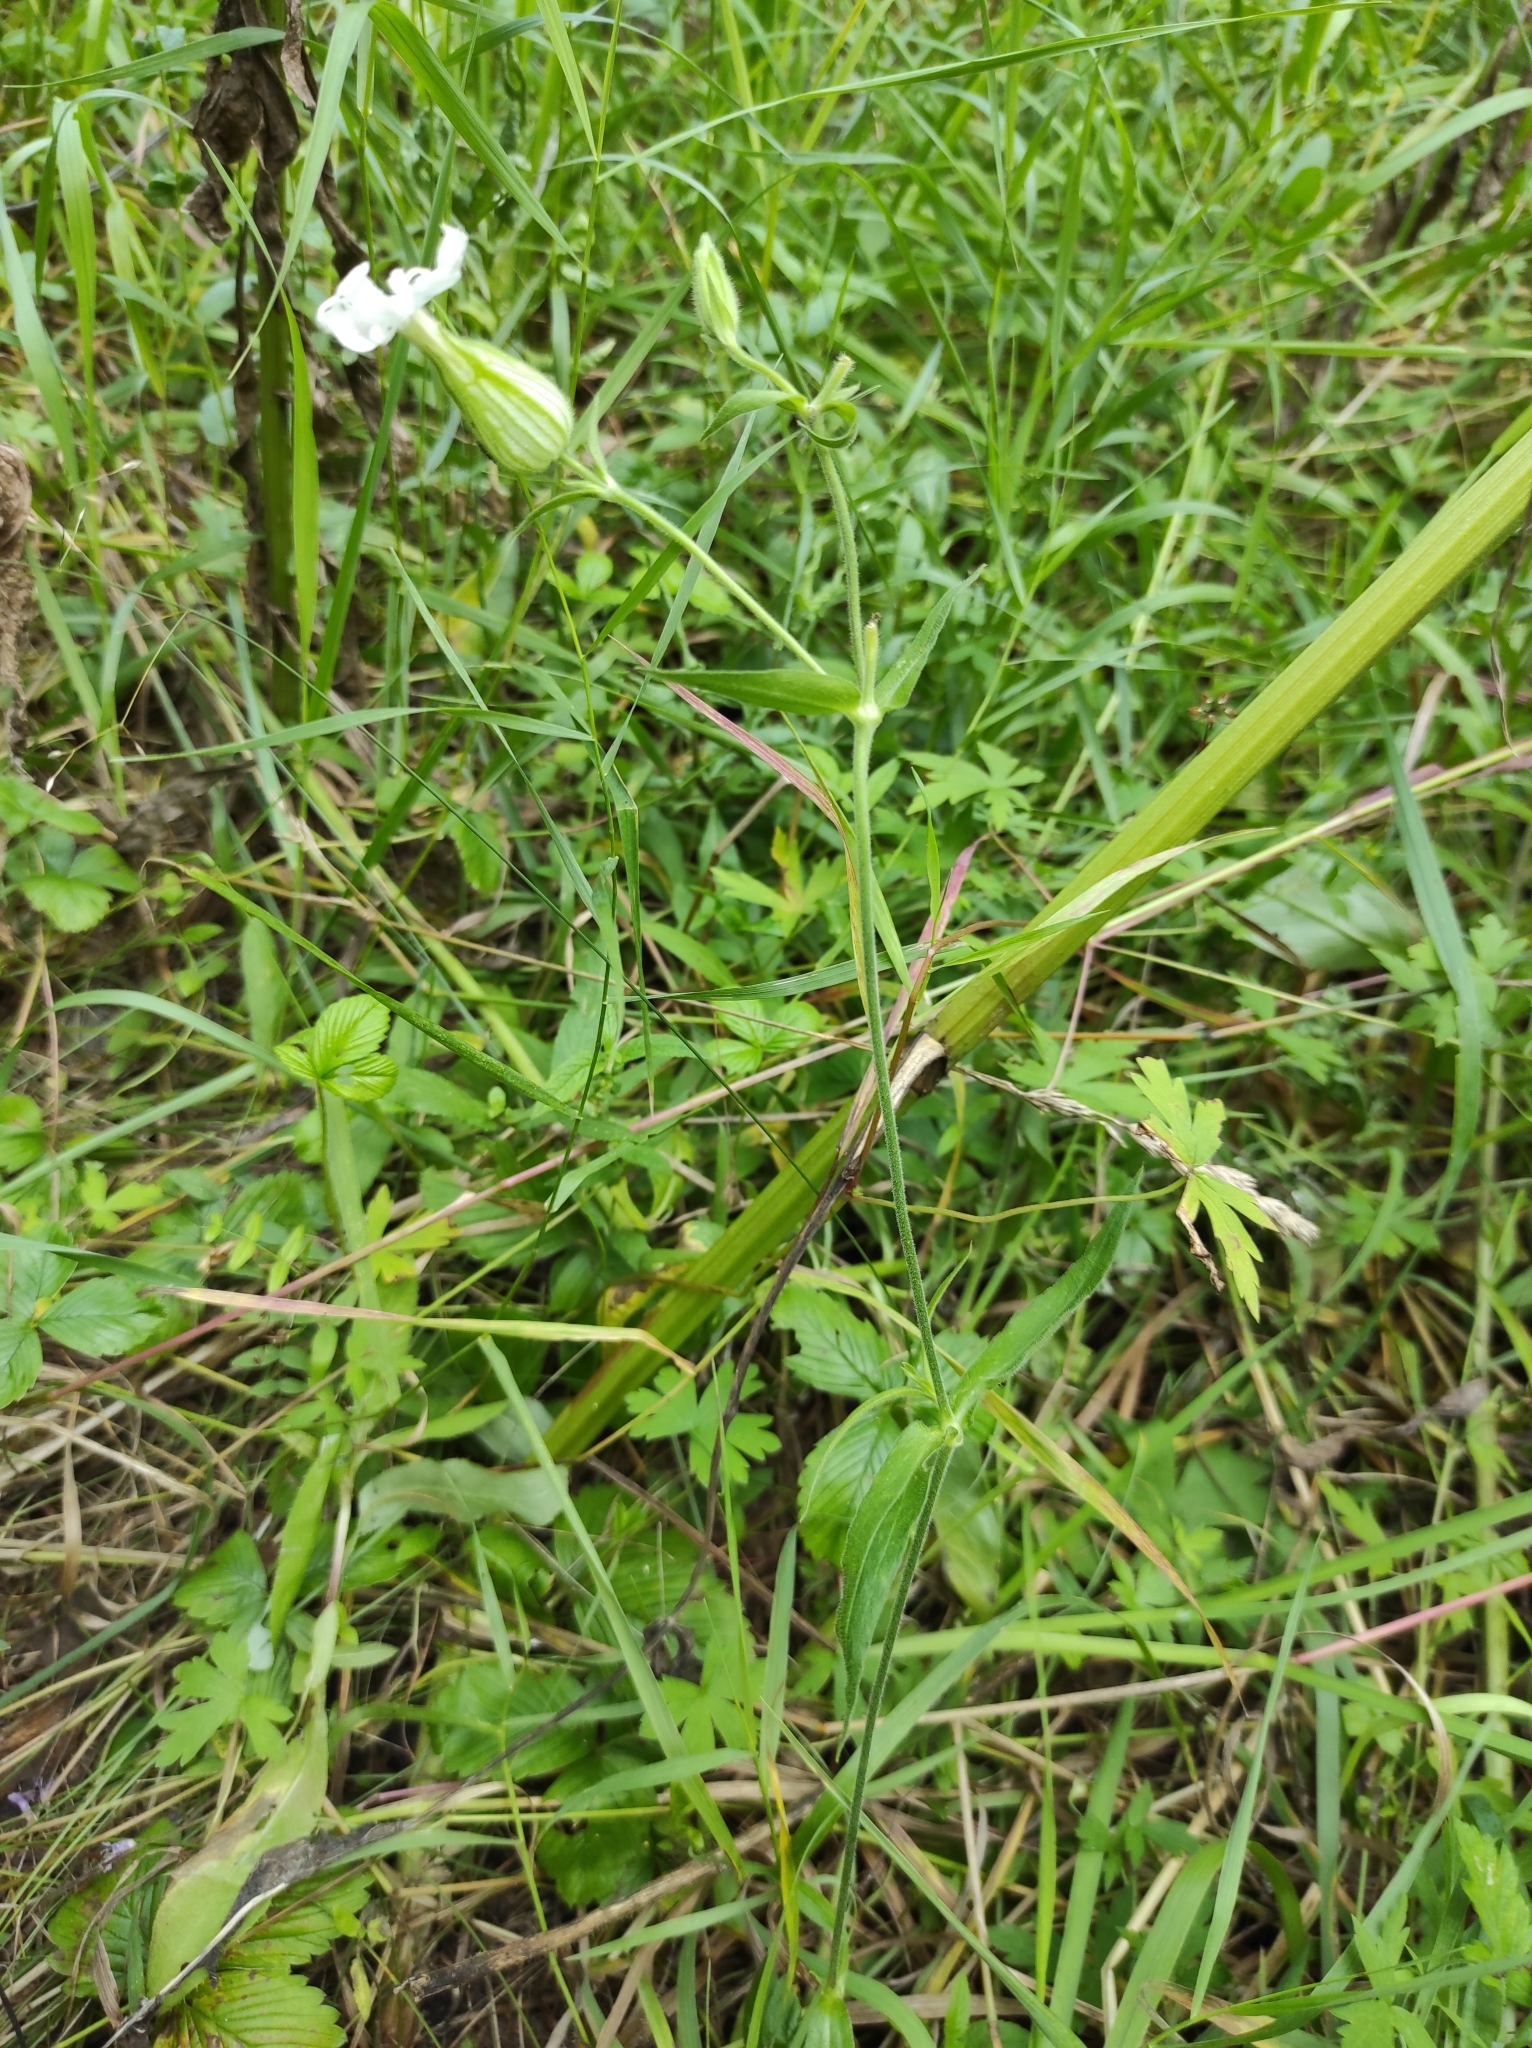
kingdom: Plantae
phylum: Tracheophyta
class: Magnoliopsida
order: Caryophyllales
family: Caryophyllaceae
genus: Silene
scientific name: Silene latifolia
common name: White campion
